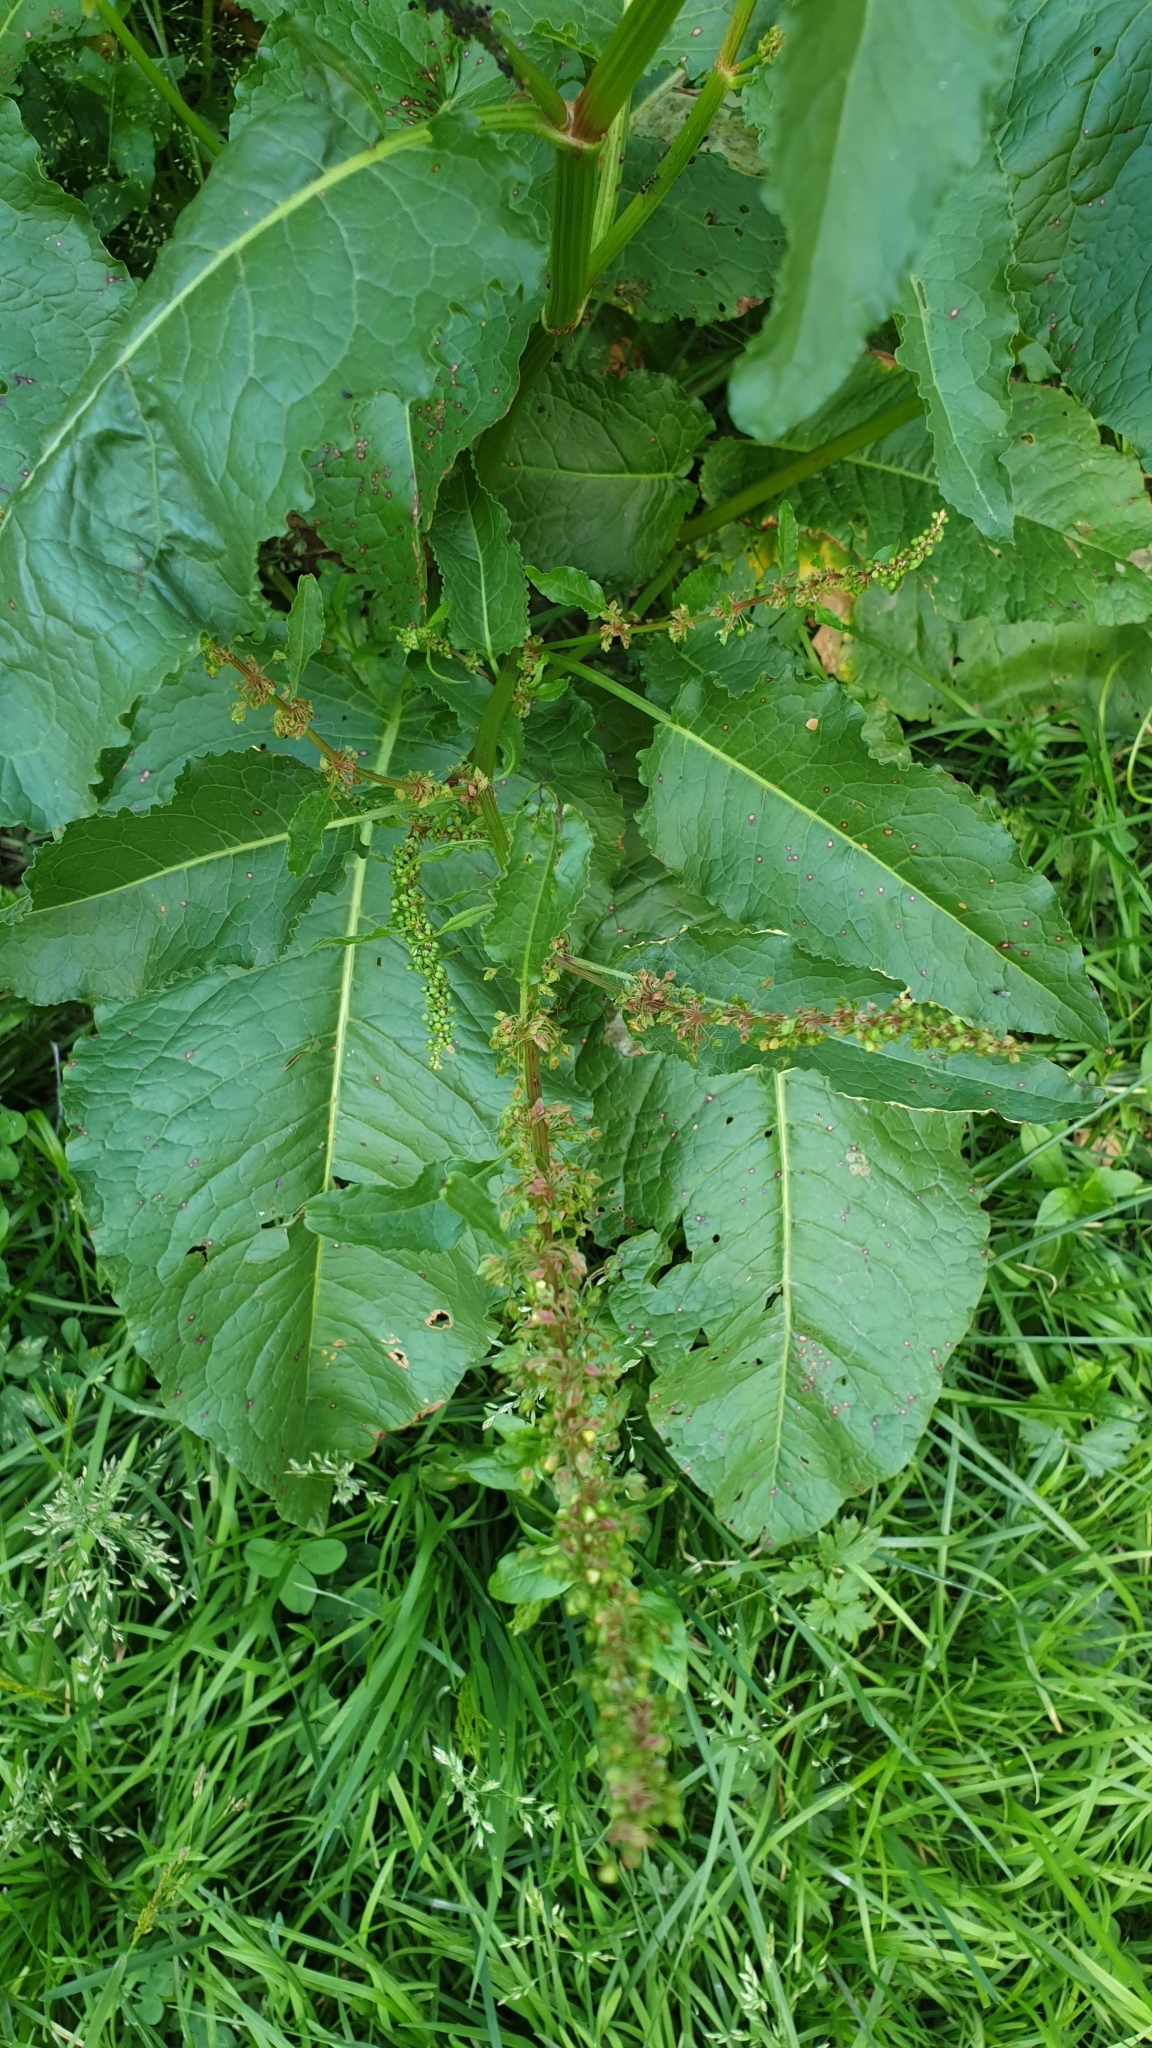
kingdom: Plantae
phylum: Tracheophyta
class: Magnoliopsida
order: Caryophyllales
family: Polygonaceae
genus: Rumex
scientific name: Rumex obtusifolius
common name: Bitter dock
